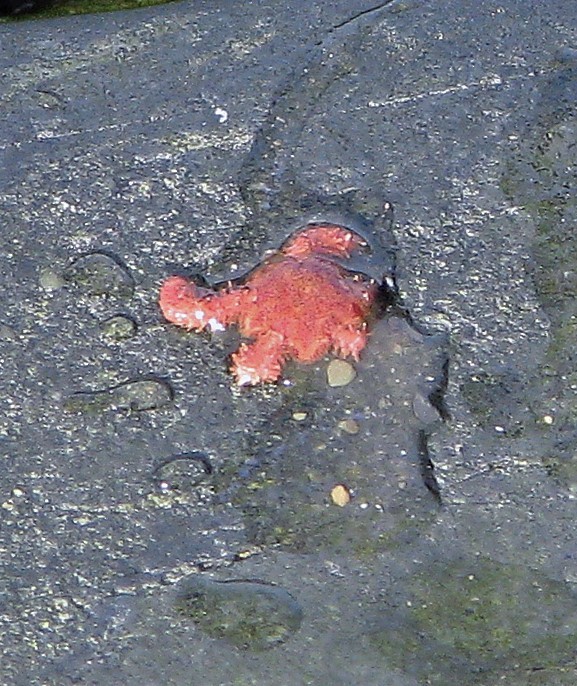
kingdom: Animalia
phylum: Echinodermata
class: Ophiuroidea
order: Amphilepidida
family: Ophiactidae
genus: Ophiactis
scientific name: Ophiactis asperula
